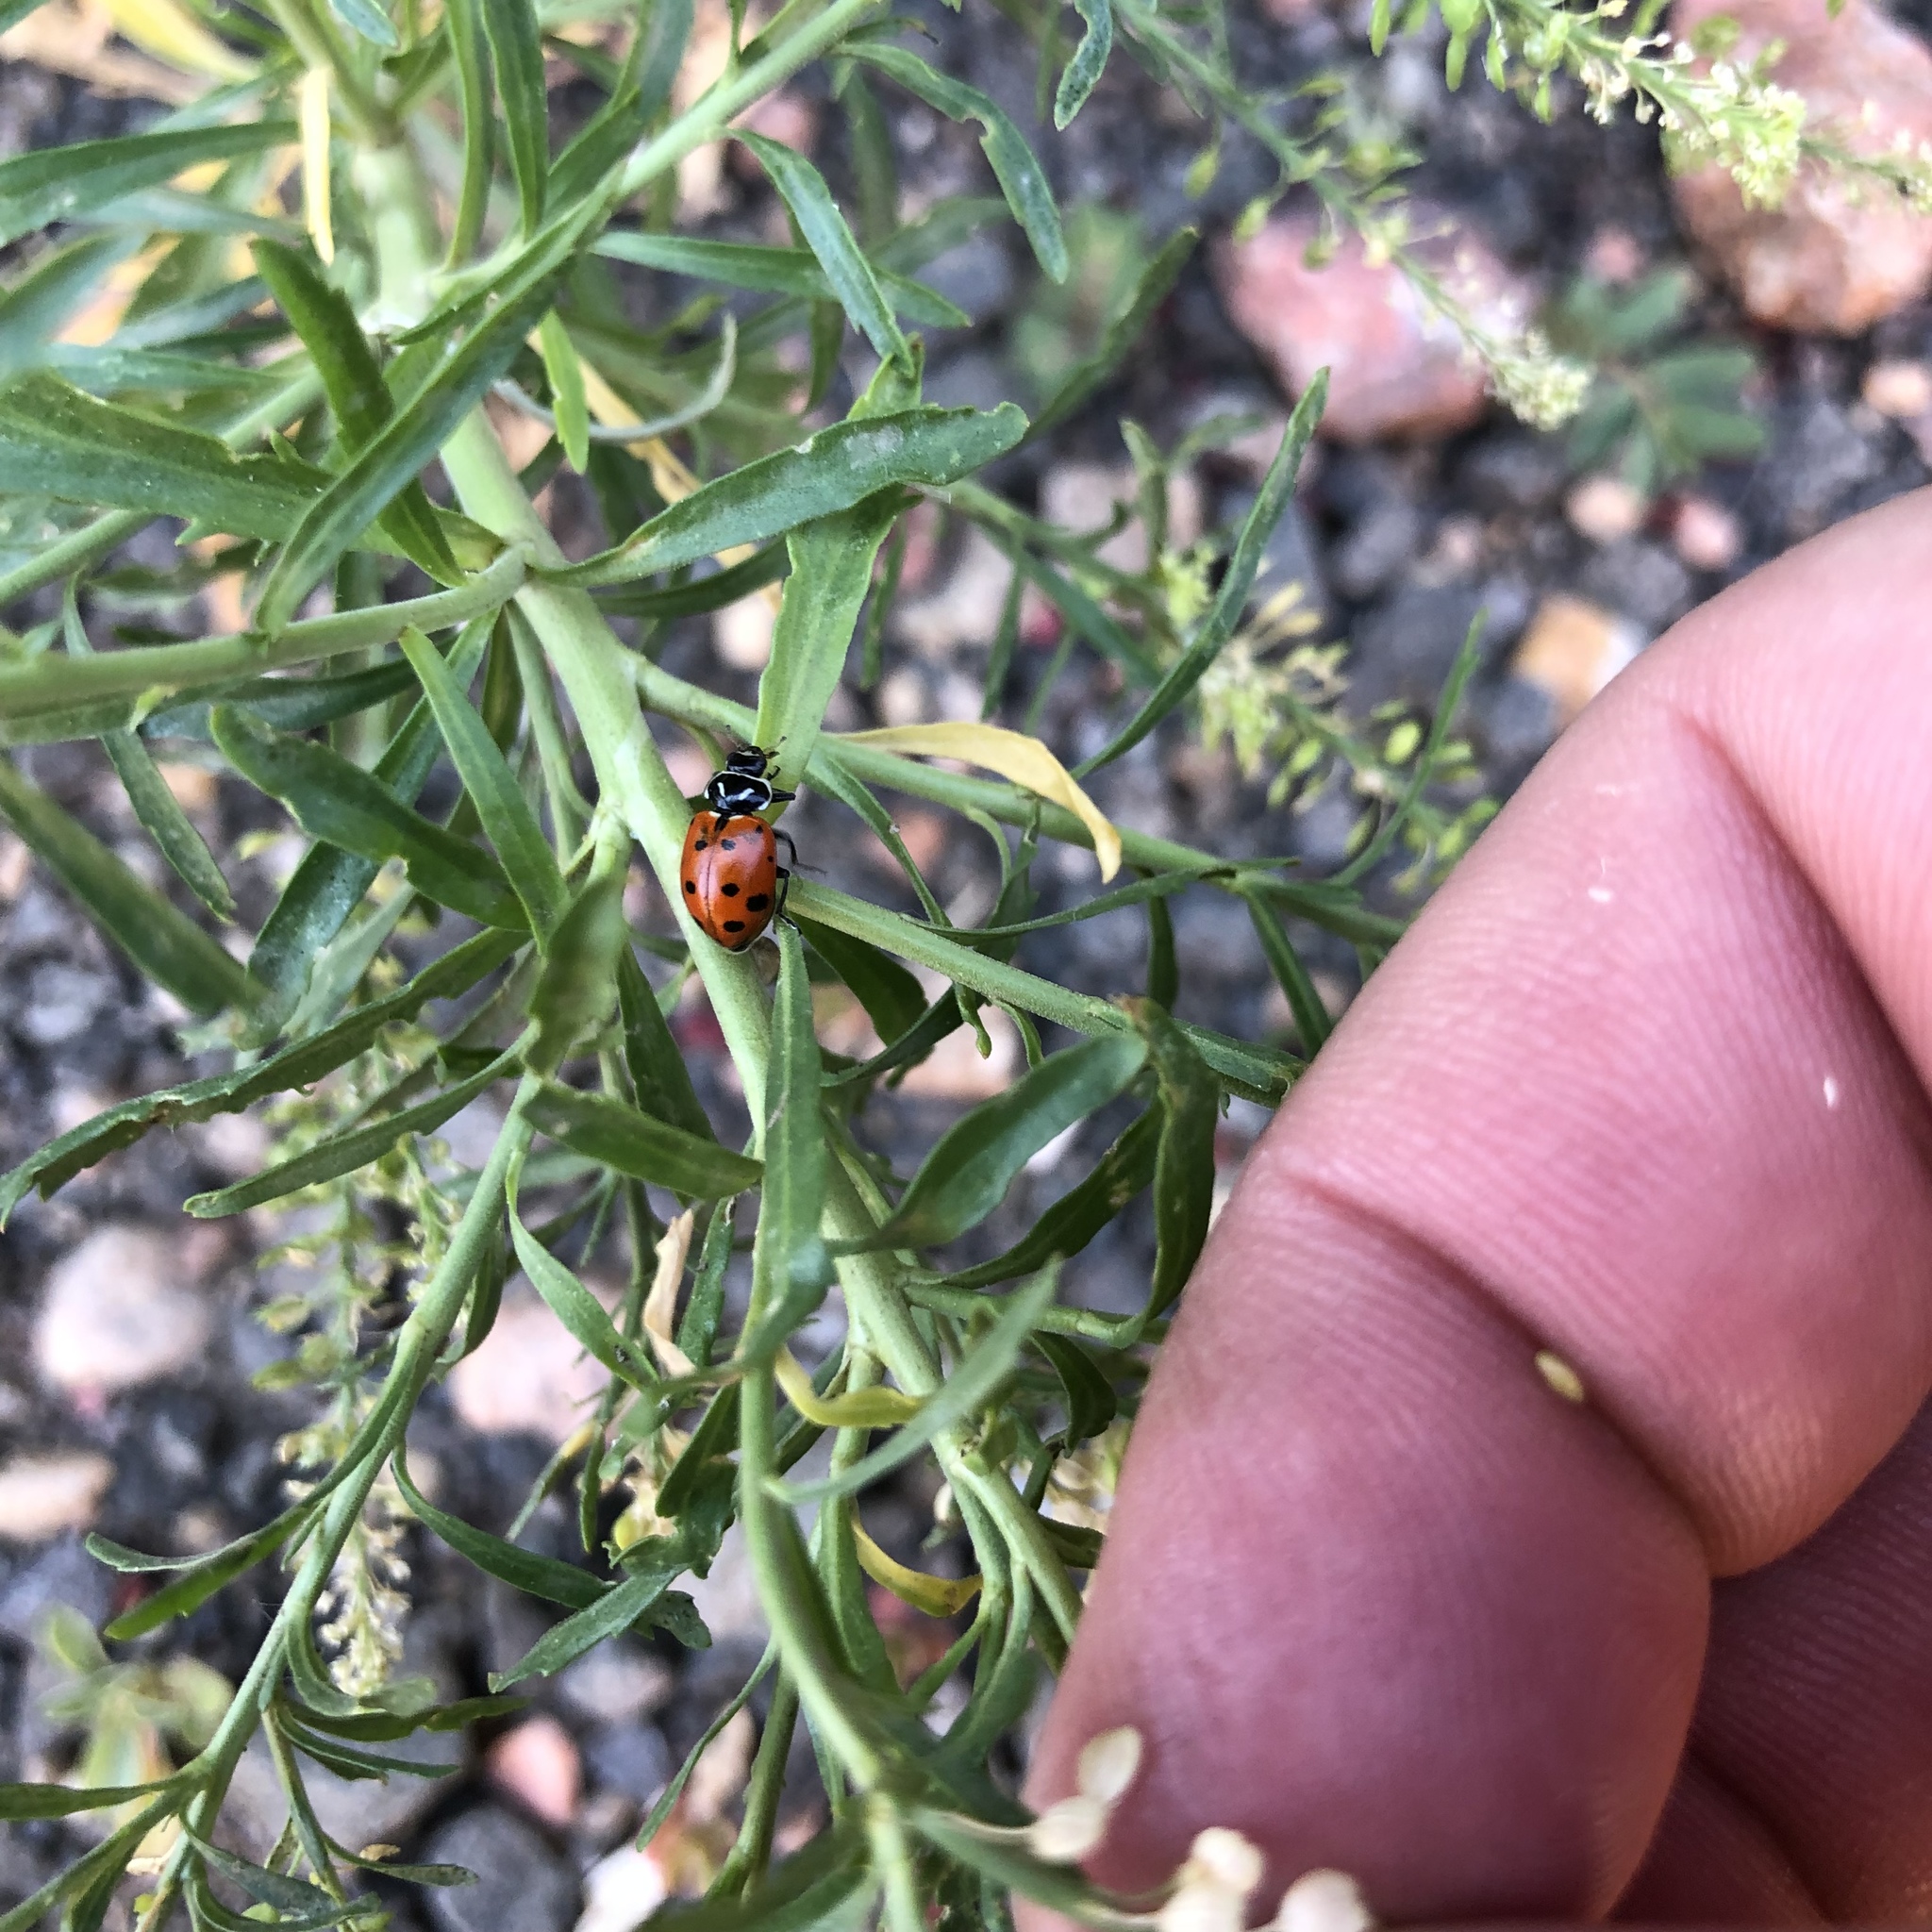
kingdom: Animalia
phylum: Arthropoda
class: Insecta
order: Coleoptera
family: Coccinellidae
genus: Hippodamia
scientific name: Hippodamia convergens
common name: Convergent lady beetle
